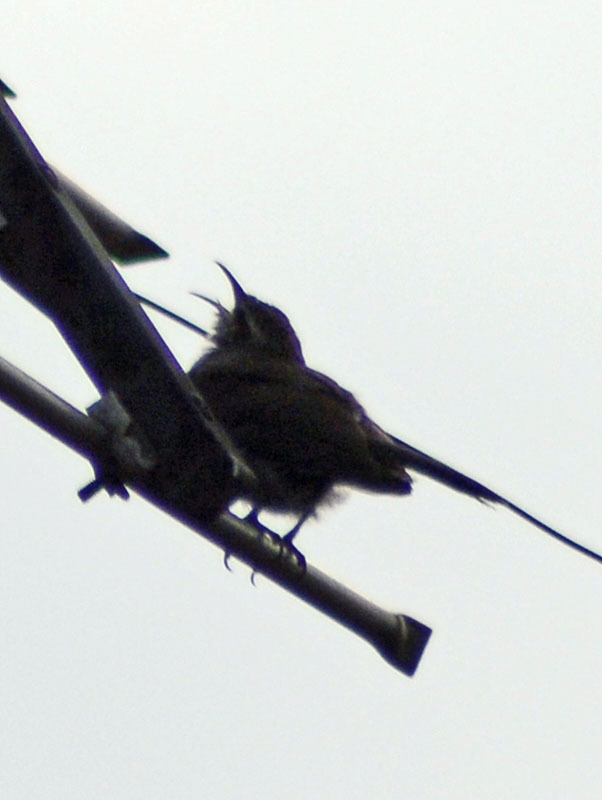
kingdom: Animalia
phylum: Chordata
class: Aves
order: Passeriformes
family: Troglodytidae
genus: Thryomanes
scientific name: Thryomanes bewickii
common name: Bewick's wren
